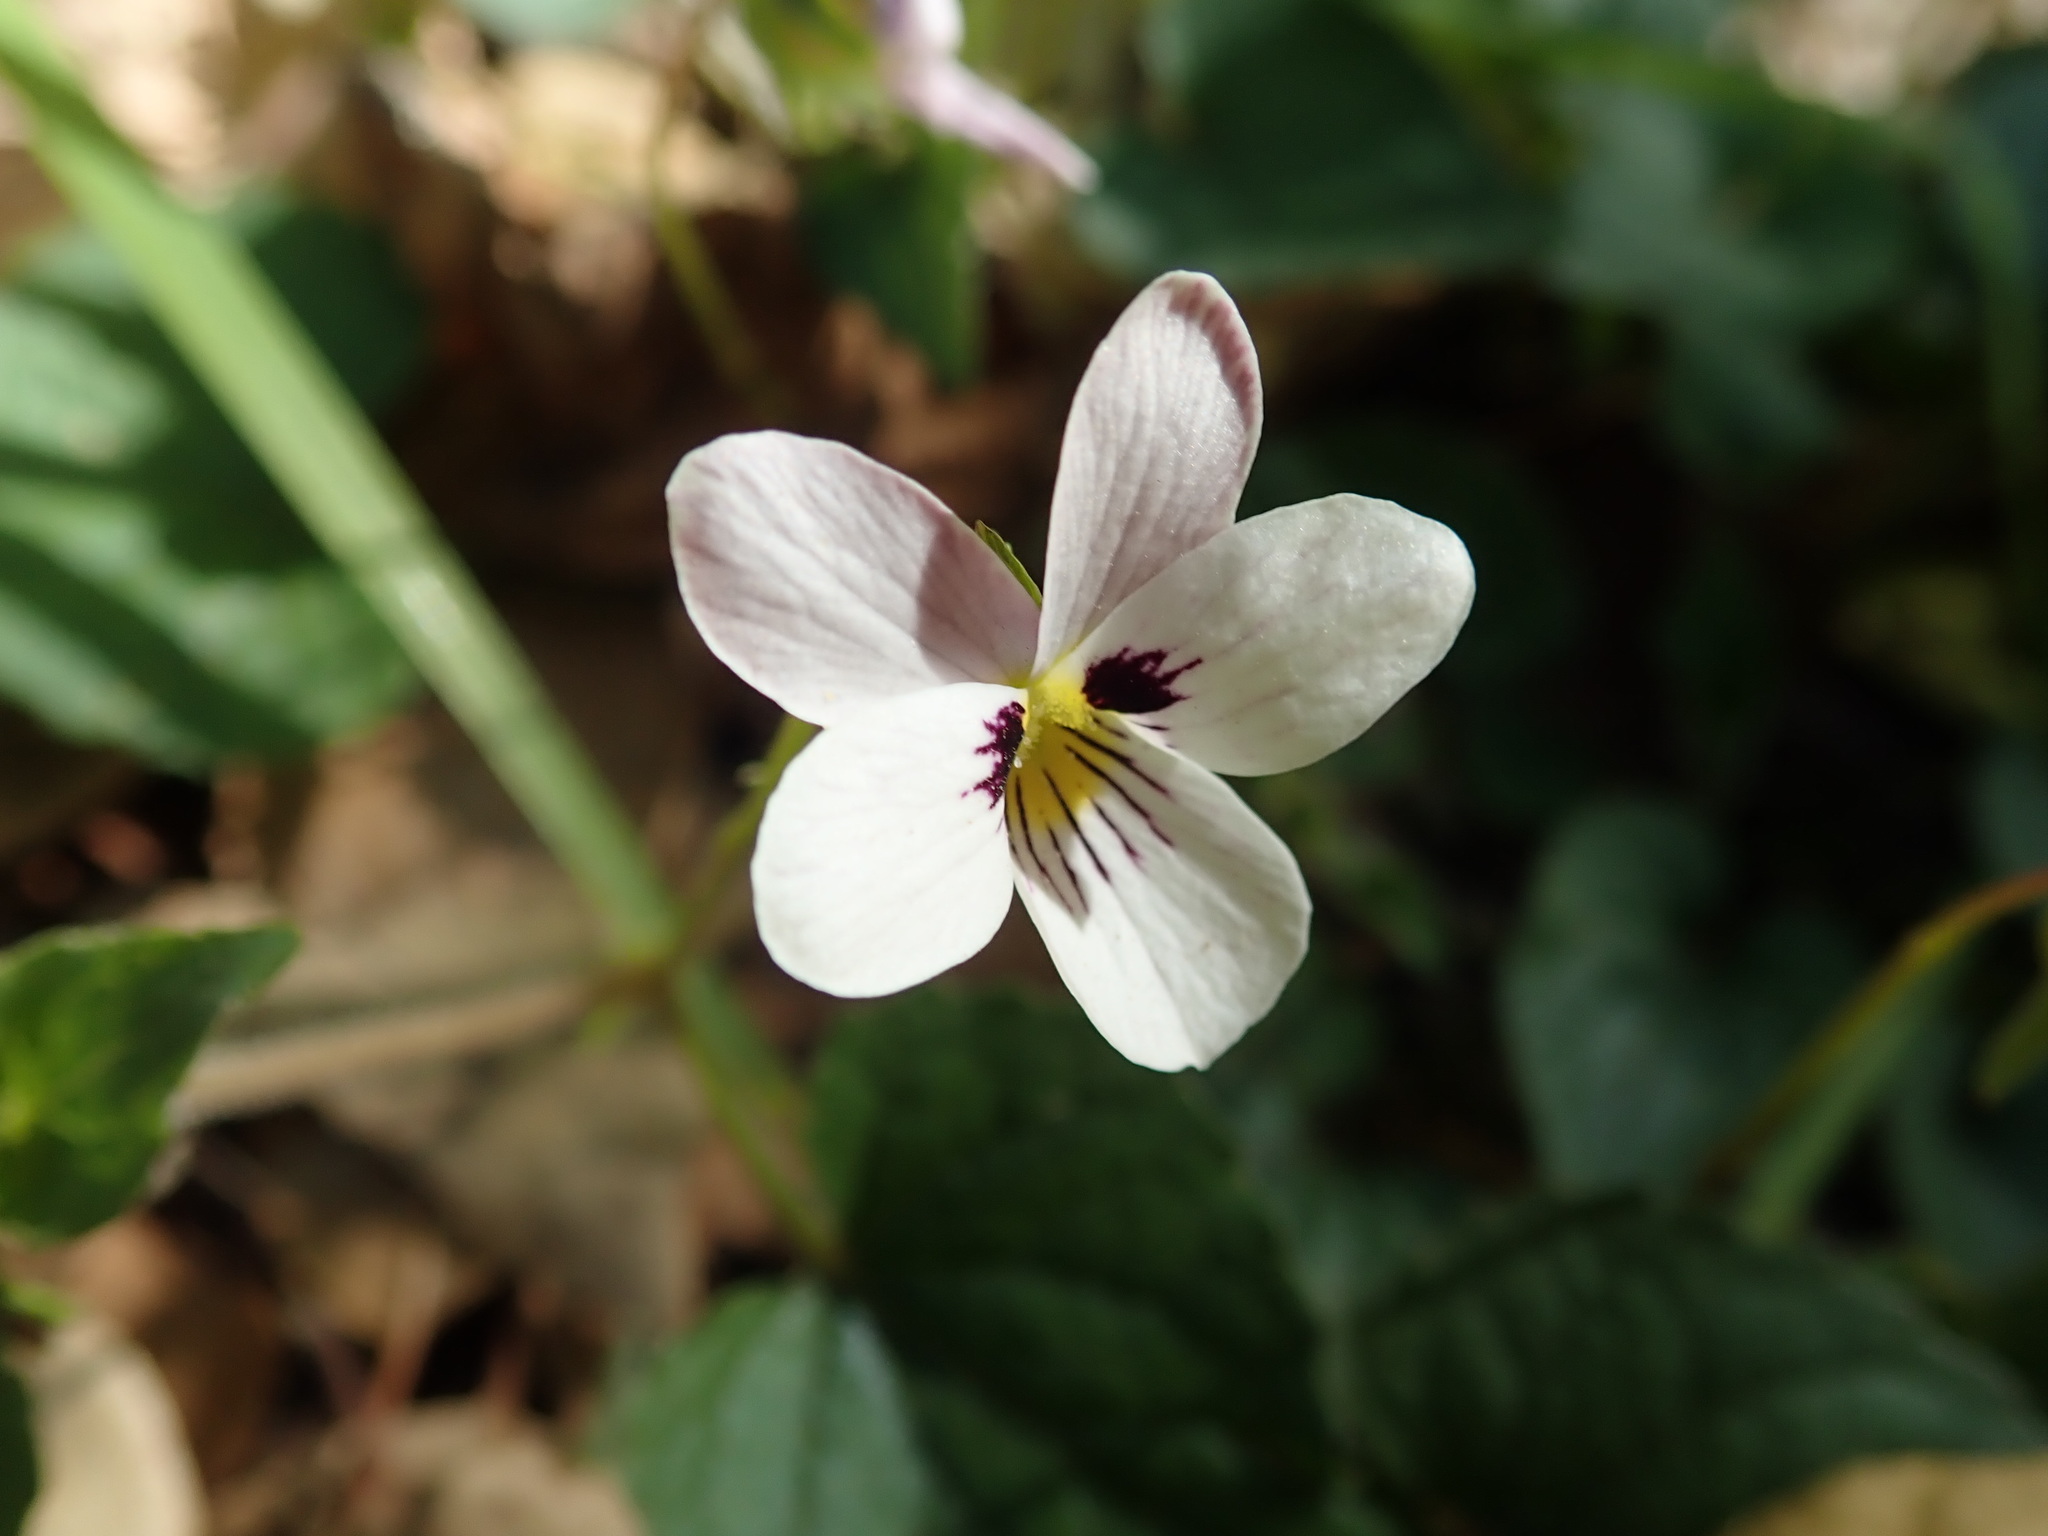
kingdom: Plantae
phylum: Tracheophyta
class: Magnoliopsida
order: Malpighiales
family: Violaceae
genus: Viola
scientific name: Viola ocellata
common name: Western heart's ease
